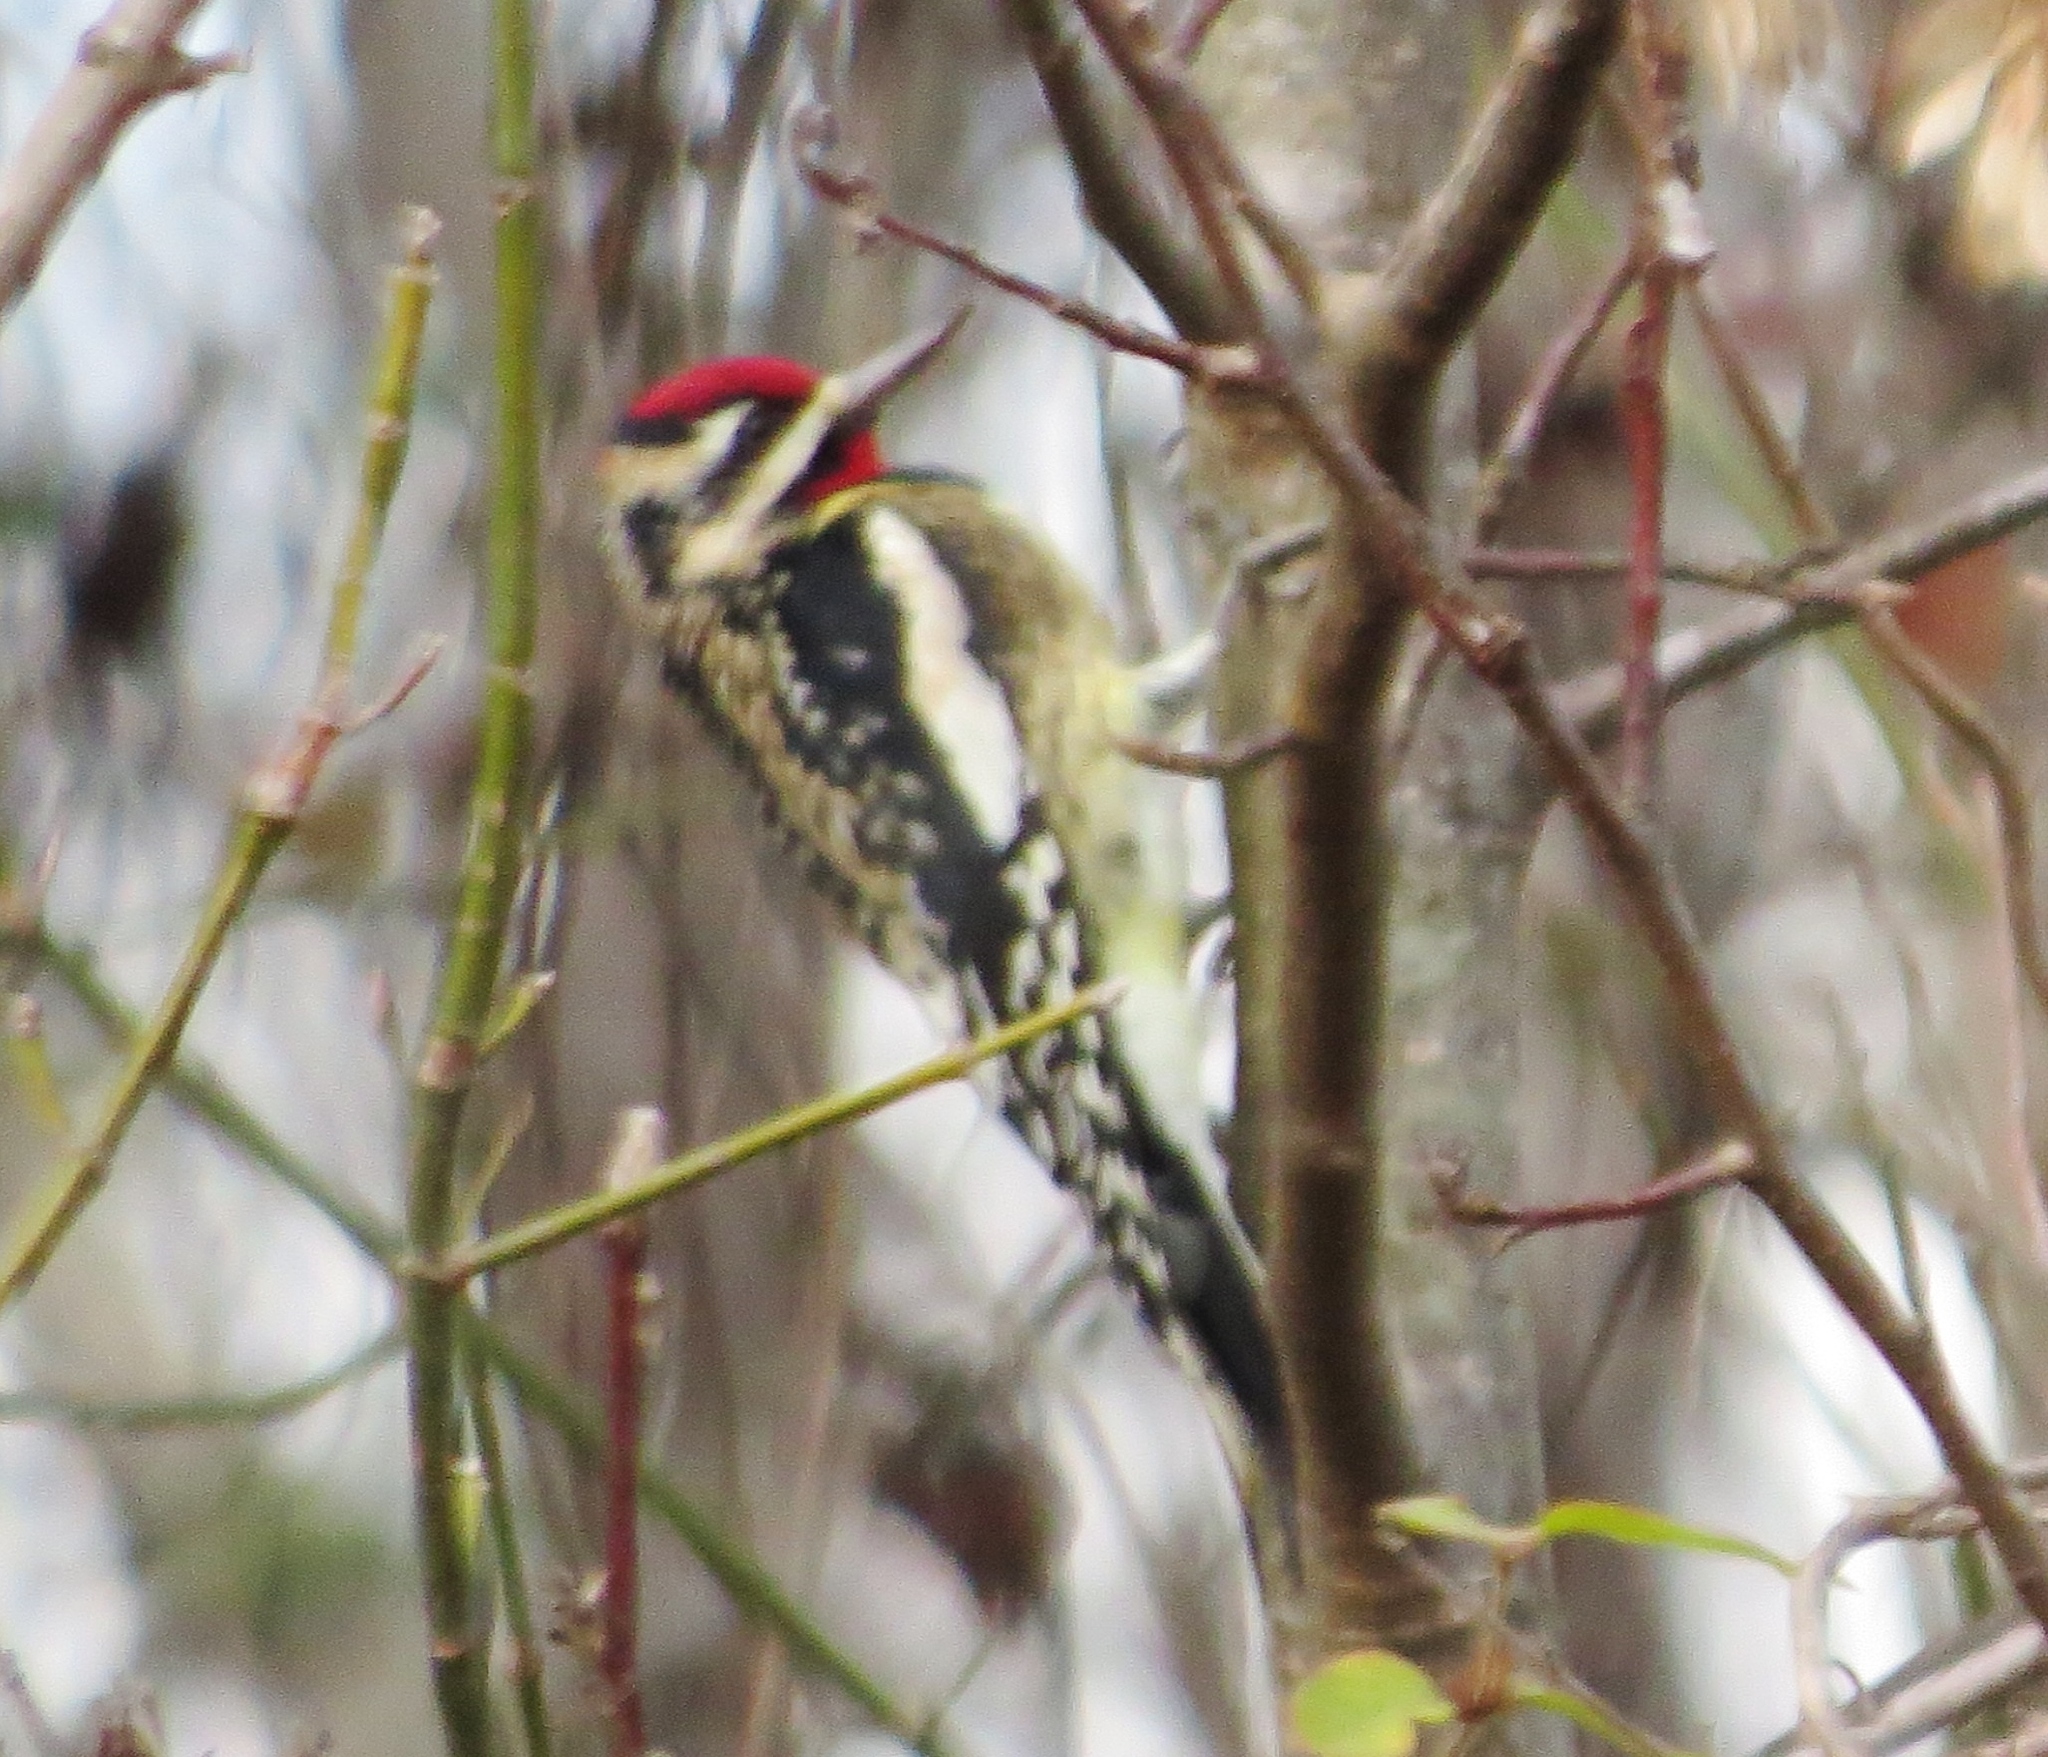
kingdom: Animalia
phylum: Chordata
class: Aves
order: Piciformes
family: Picidae
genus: Sphyrapicus
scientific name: Sphyrapicus varius
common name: Yellow-bellied sapsucker
